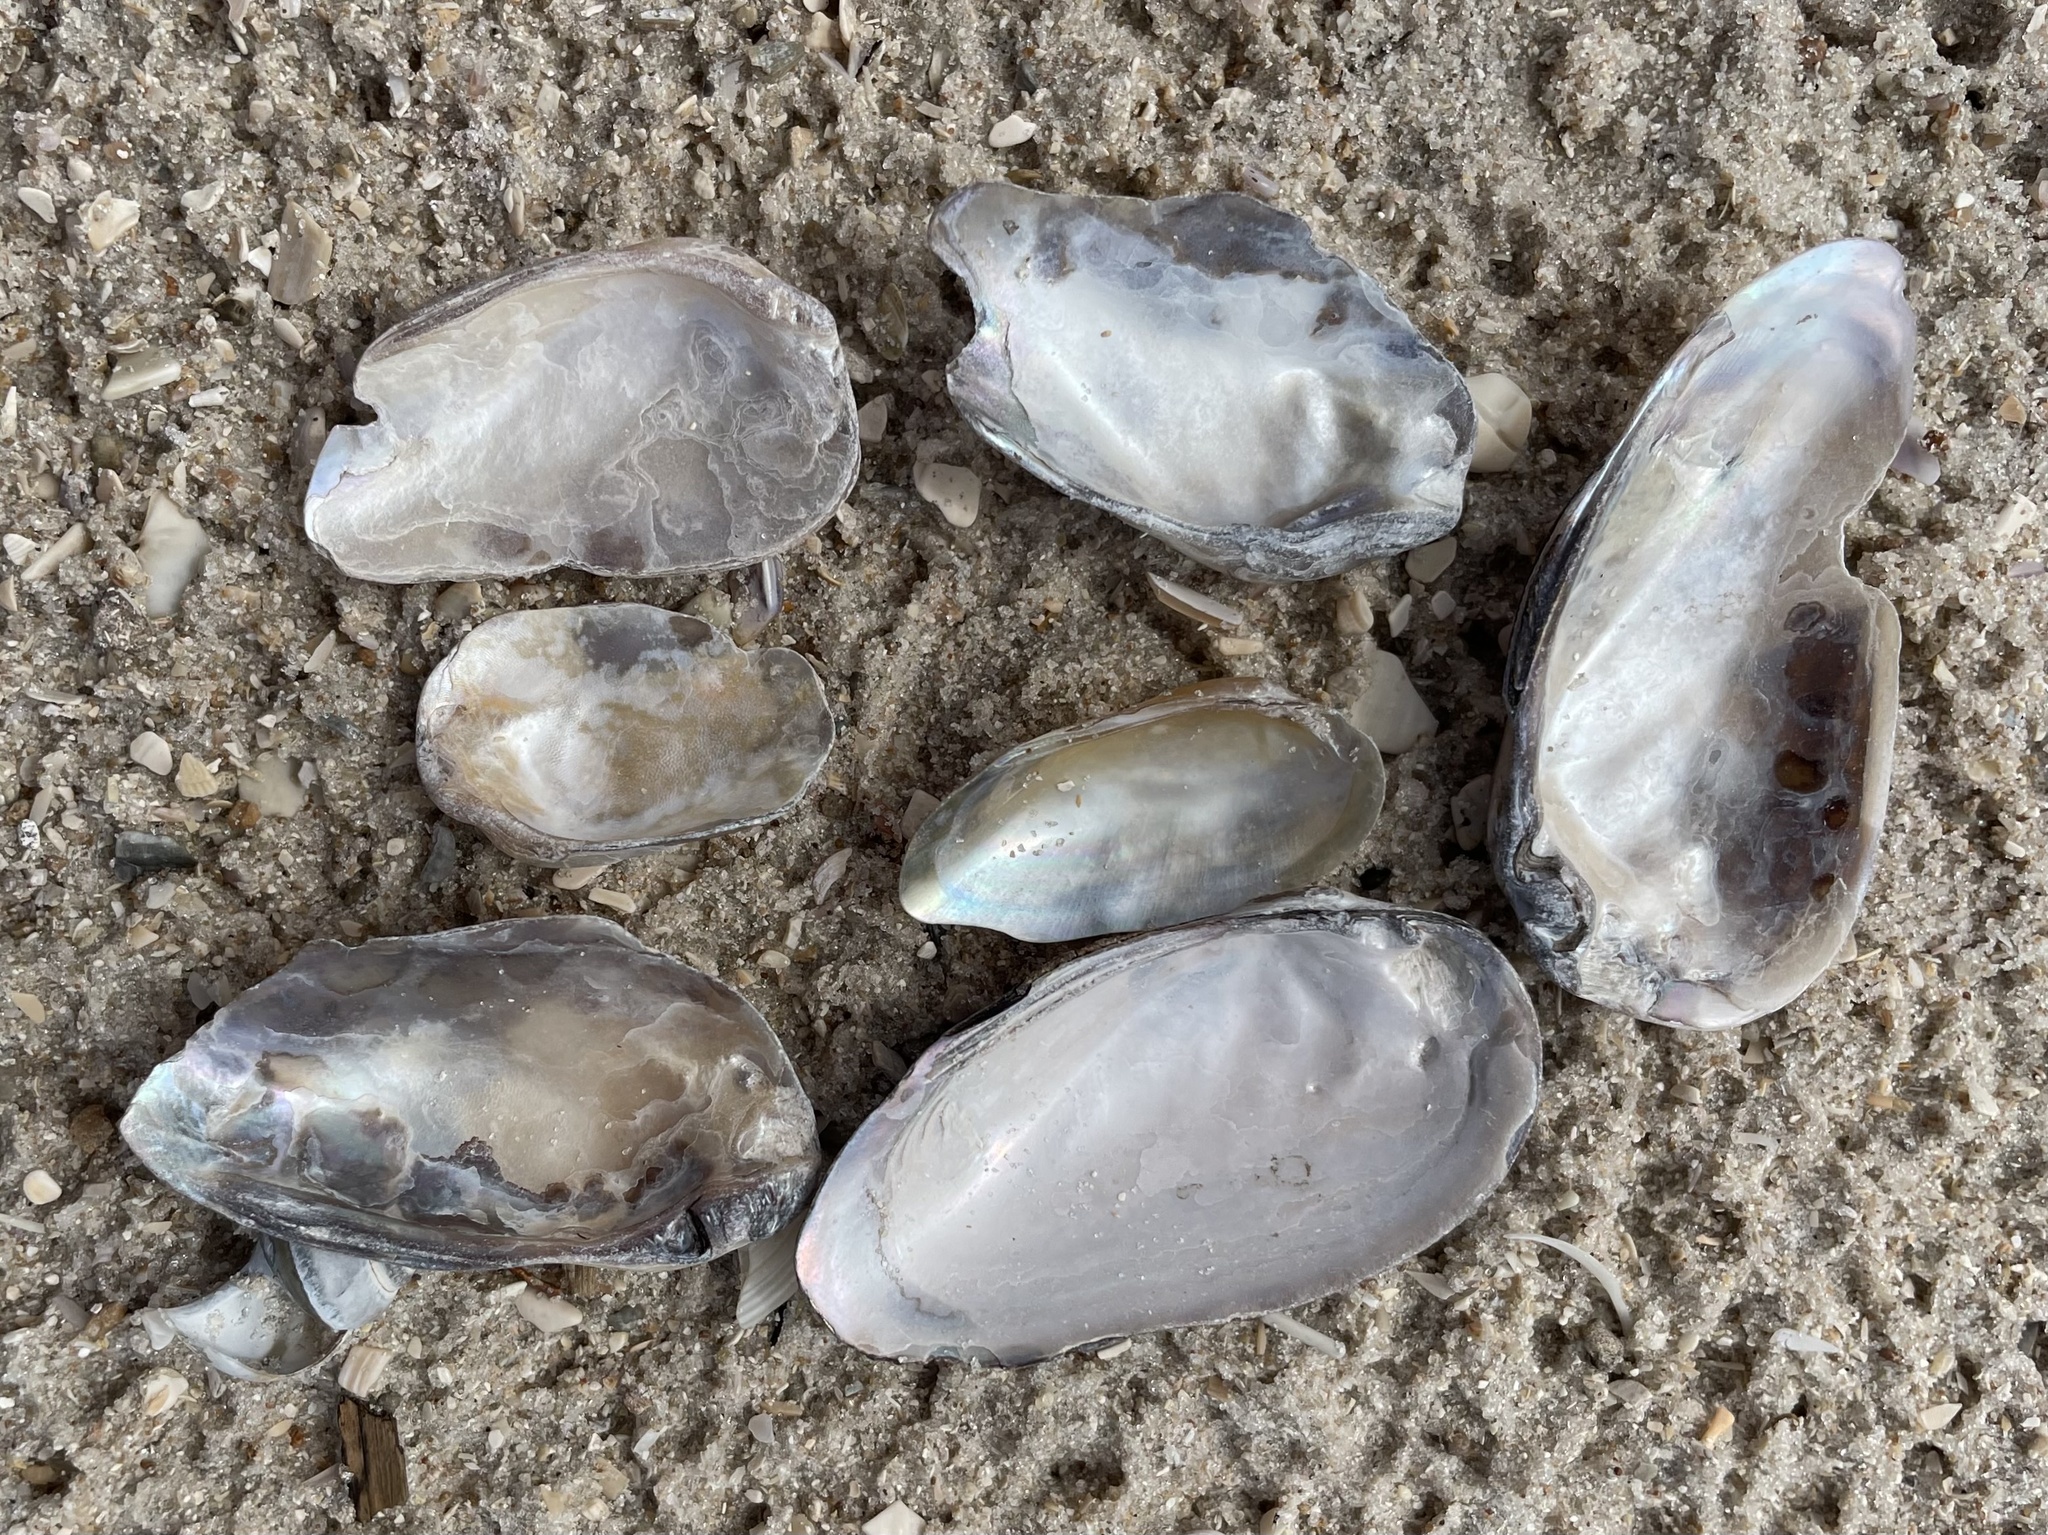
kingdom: Animalia
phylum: Mollusca
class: Bivalvia
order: Unionida
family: Unionidae
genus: Elliptio
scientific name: Elliptio jayensis
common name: Florida spike
